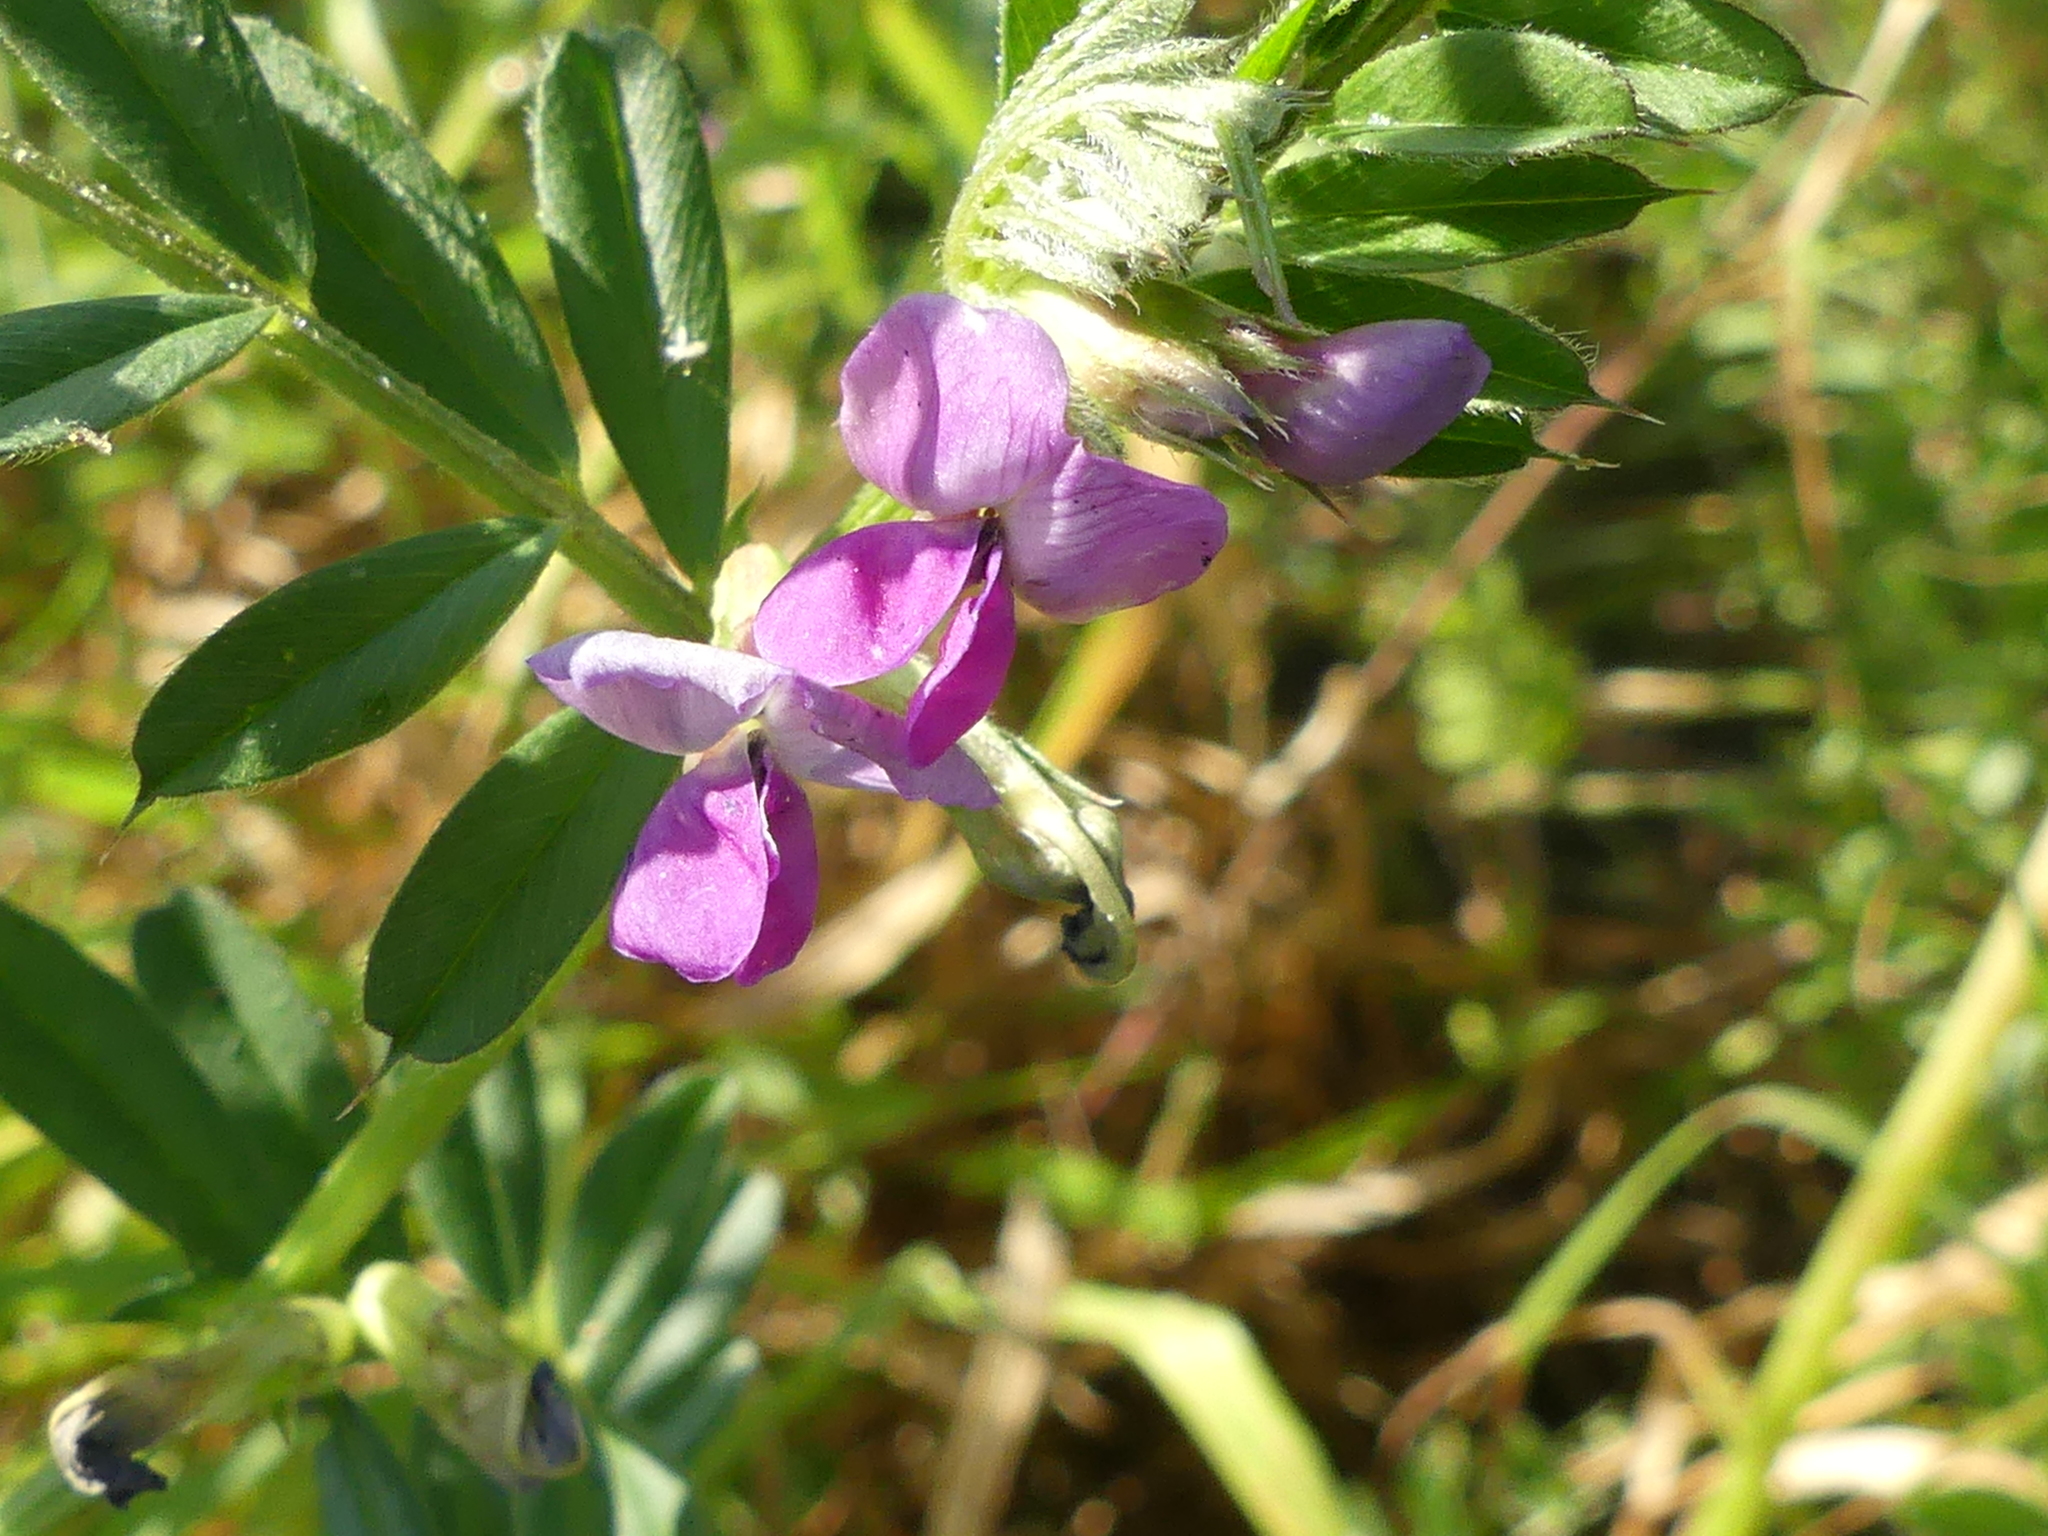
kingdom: Plantae
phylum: Tracheophyta
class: Magnoliopsida
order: Fabales
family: Fabaceae
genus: Vicia
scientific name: Vicia sativa
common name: Garden vetch
